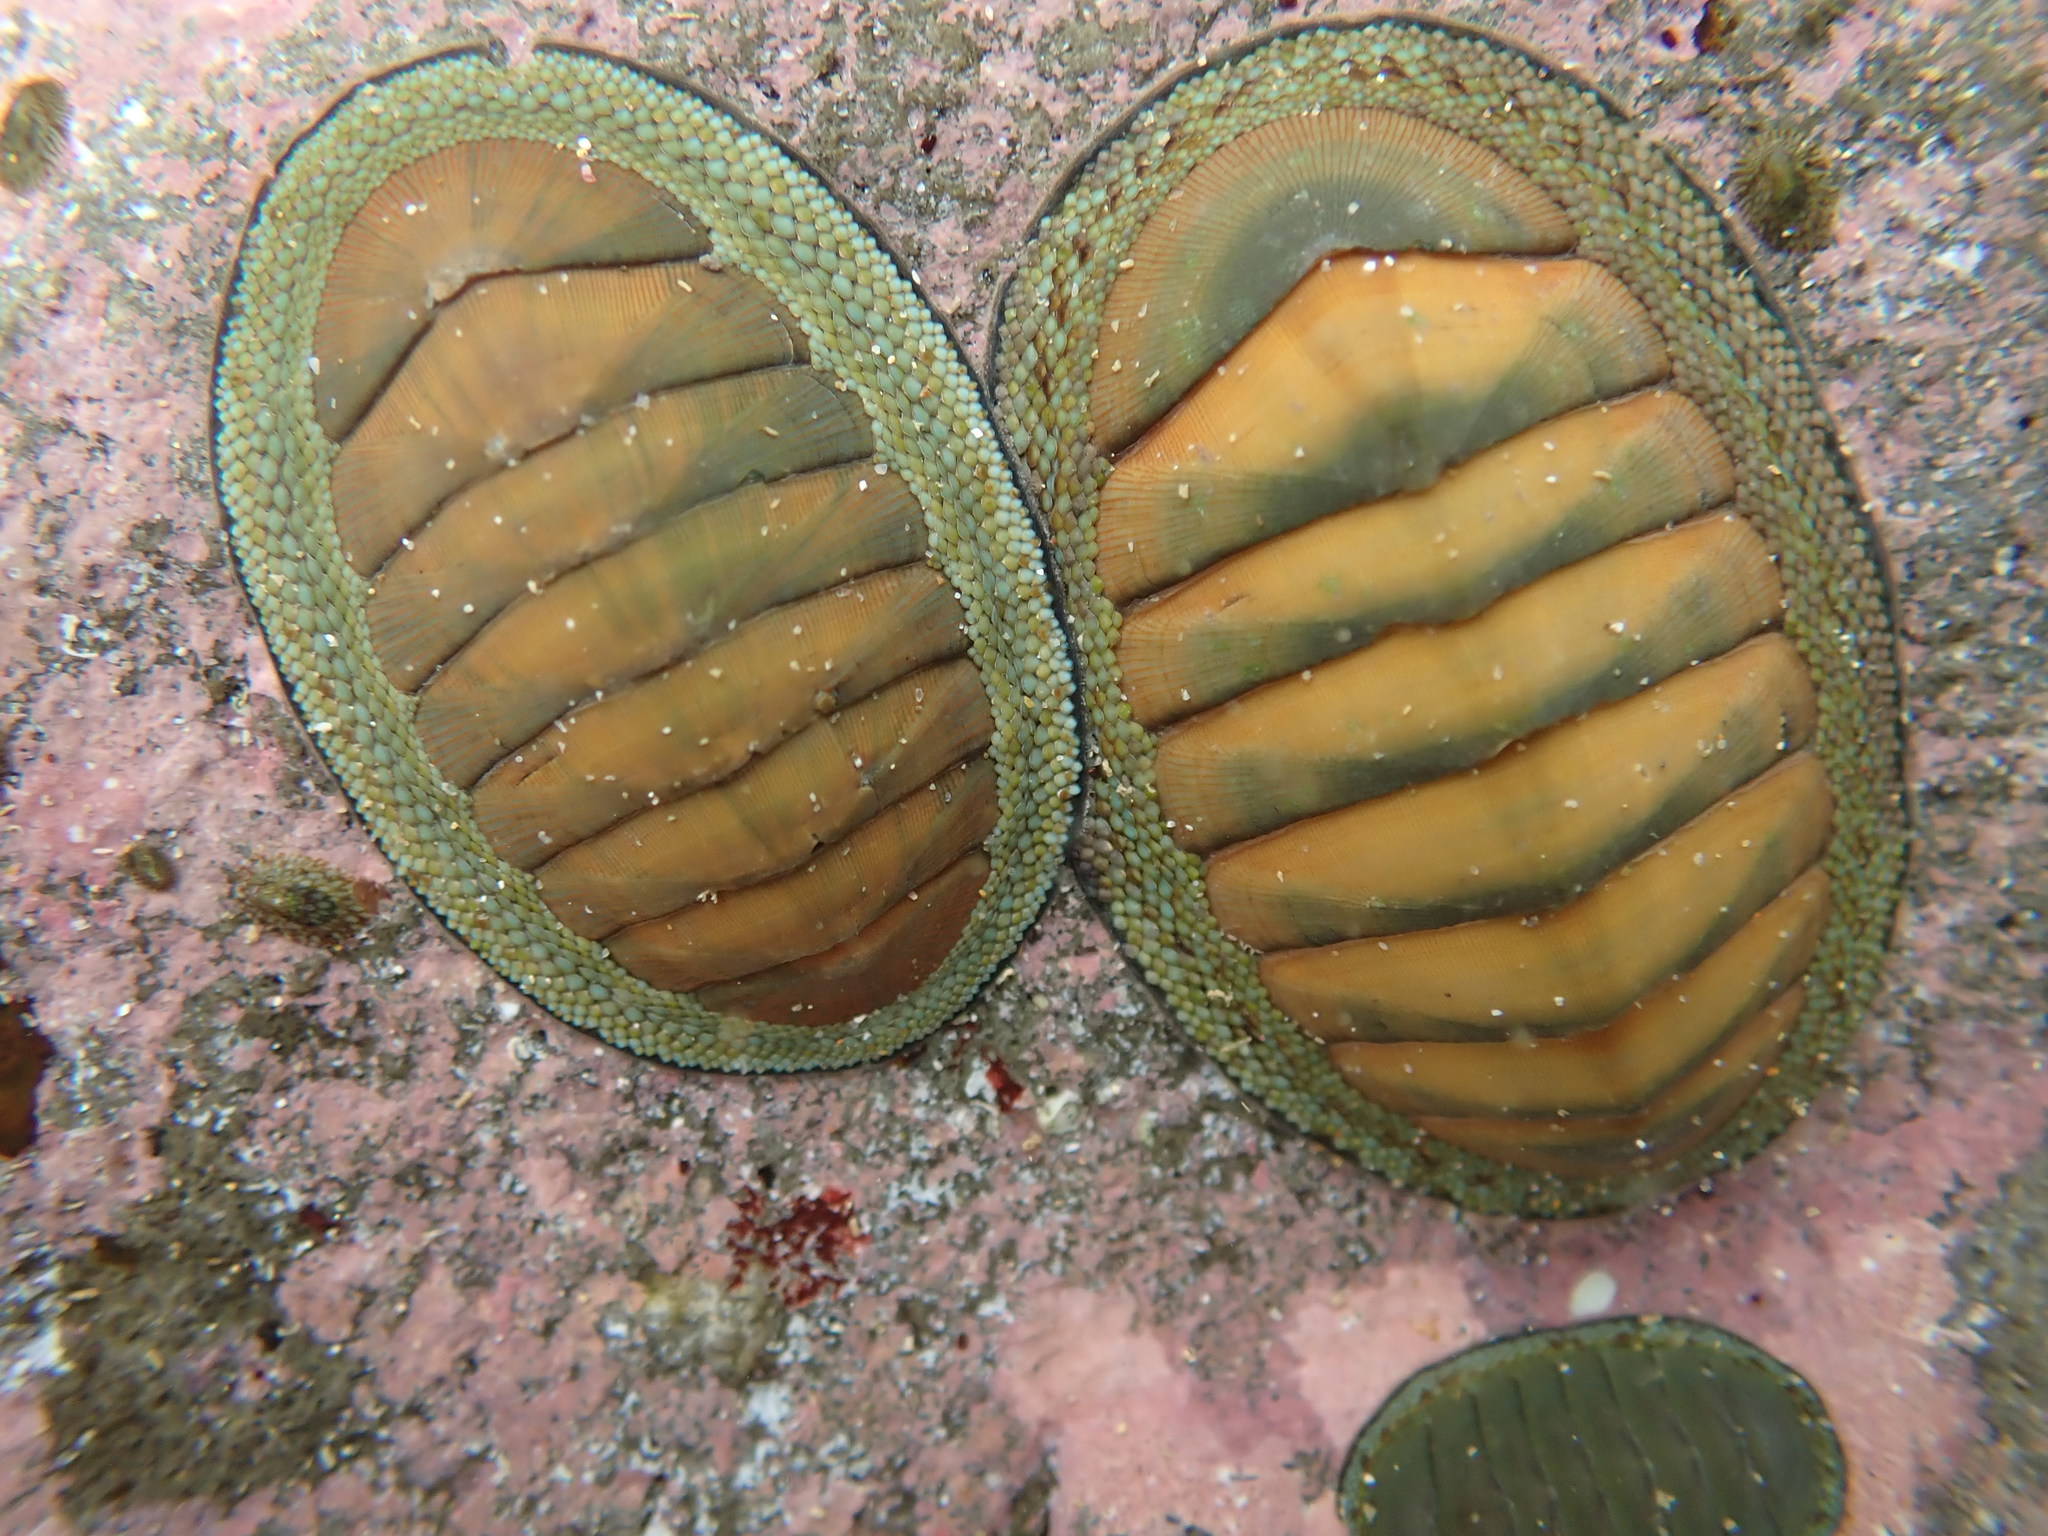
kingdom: Animalia
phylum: Mollusca
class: Polyplacophora
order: Chitonida
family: Chitonidae
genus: Chiton
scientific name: Chiton glaucus
